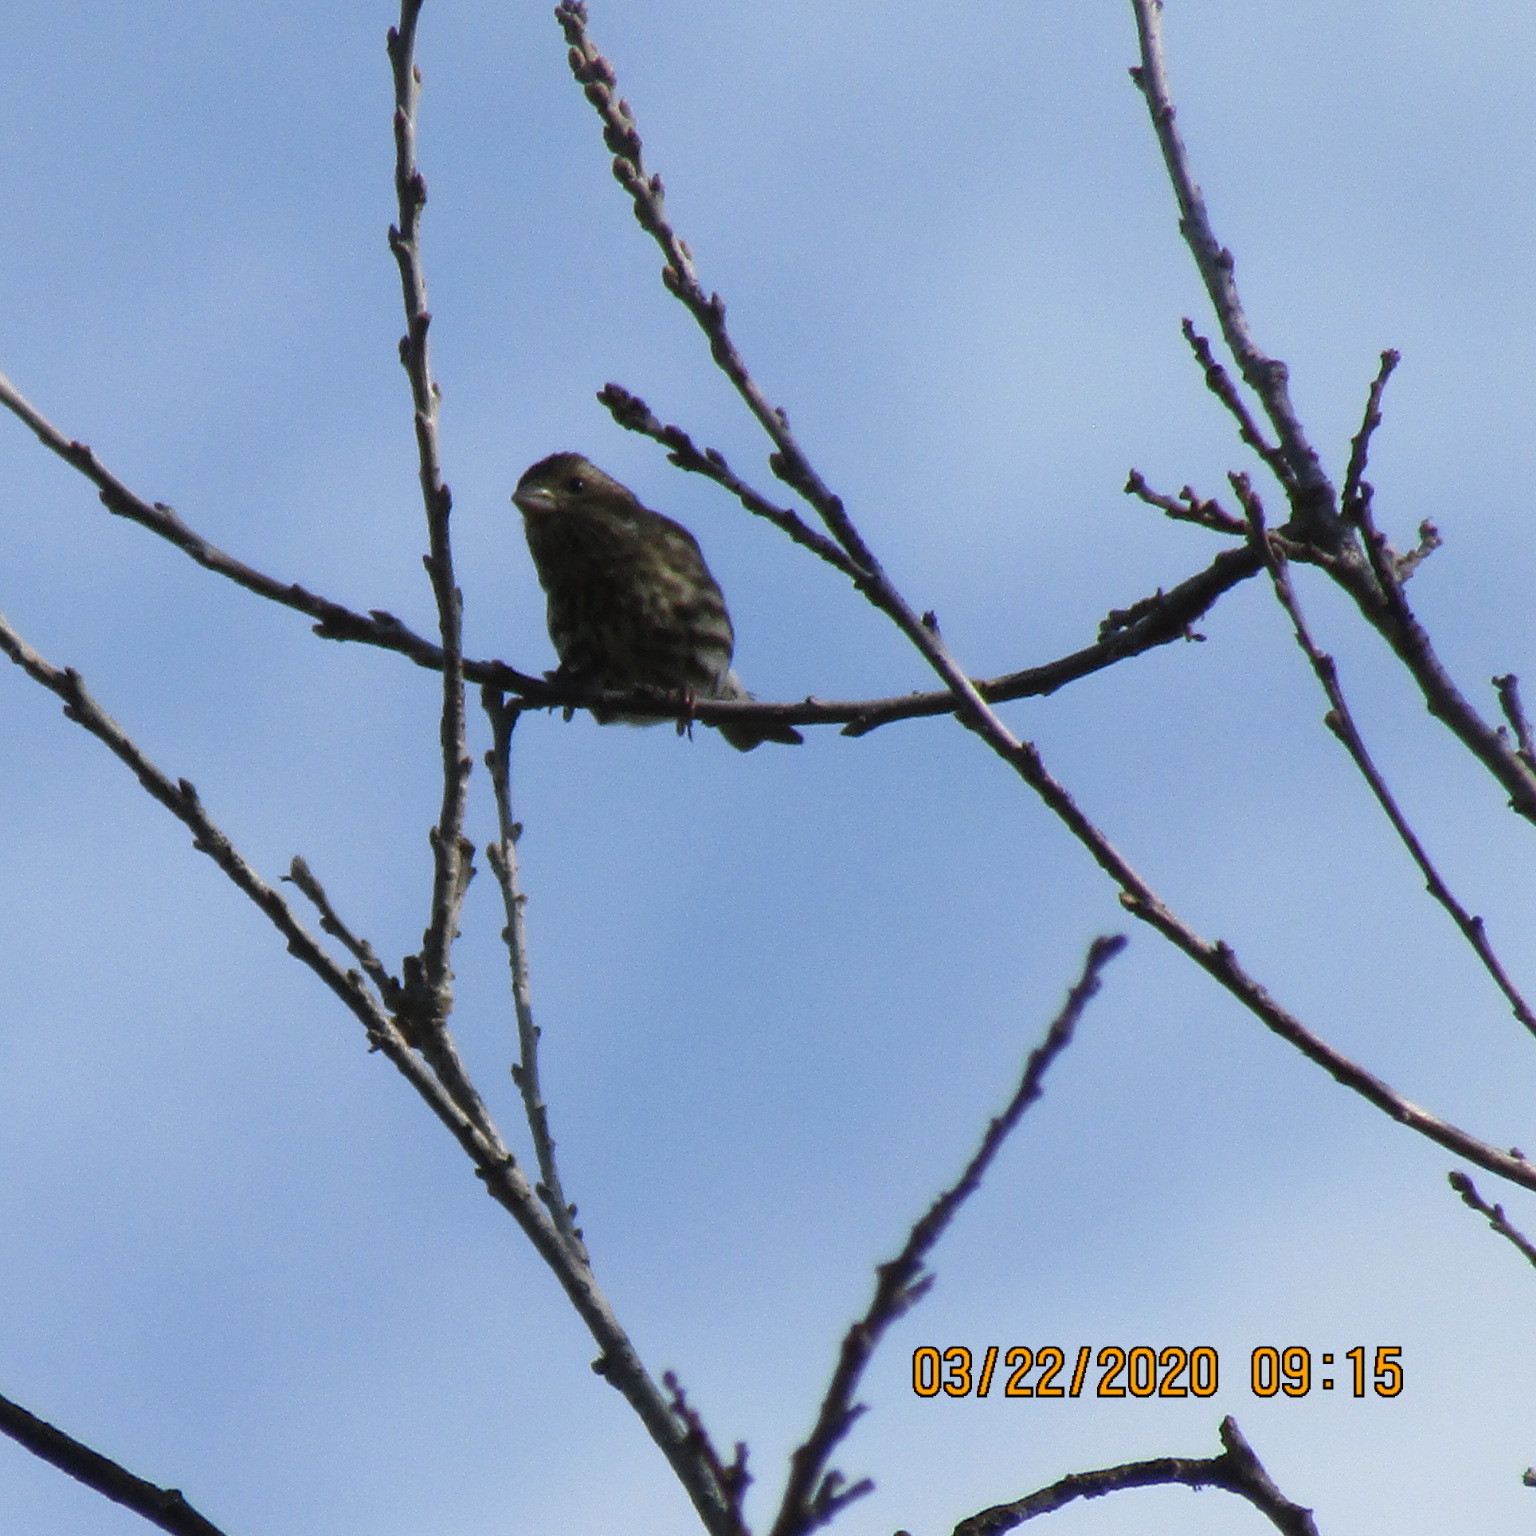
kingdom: Animalia
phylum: Chordata
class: Aves
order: Passeriformes
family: Fringillidae
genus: Haemorhous
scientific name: Haemorhous purpureus
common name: Purple finch
